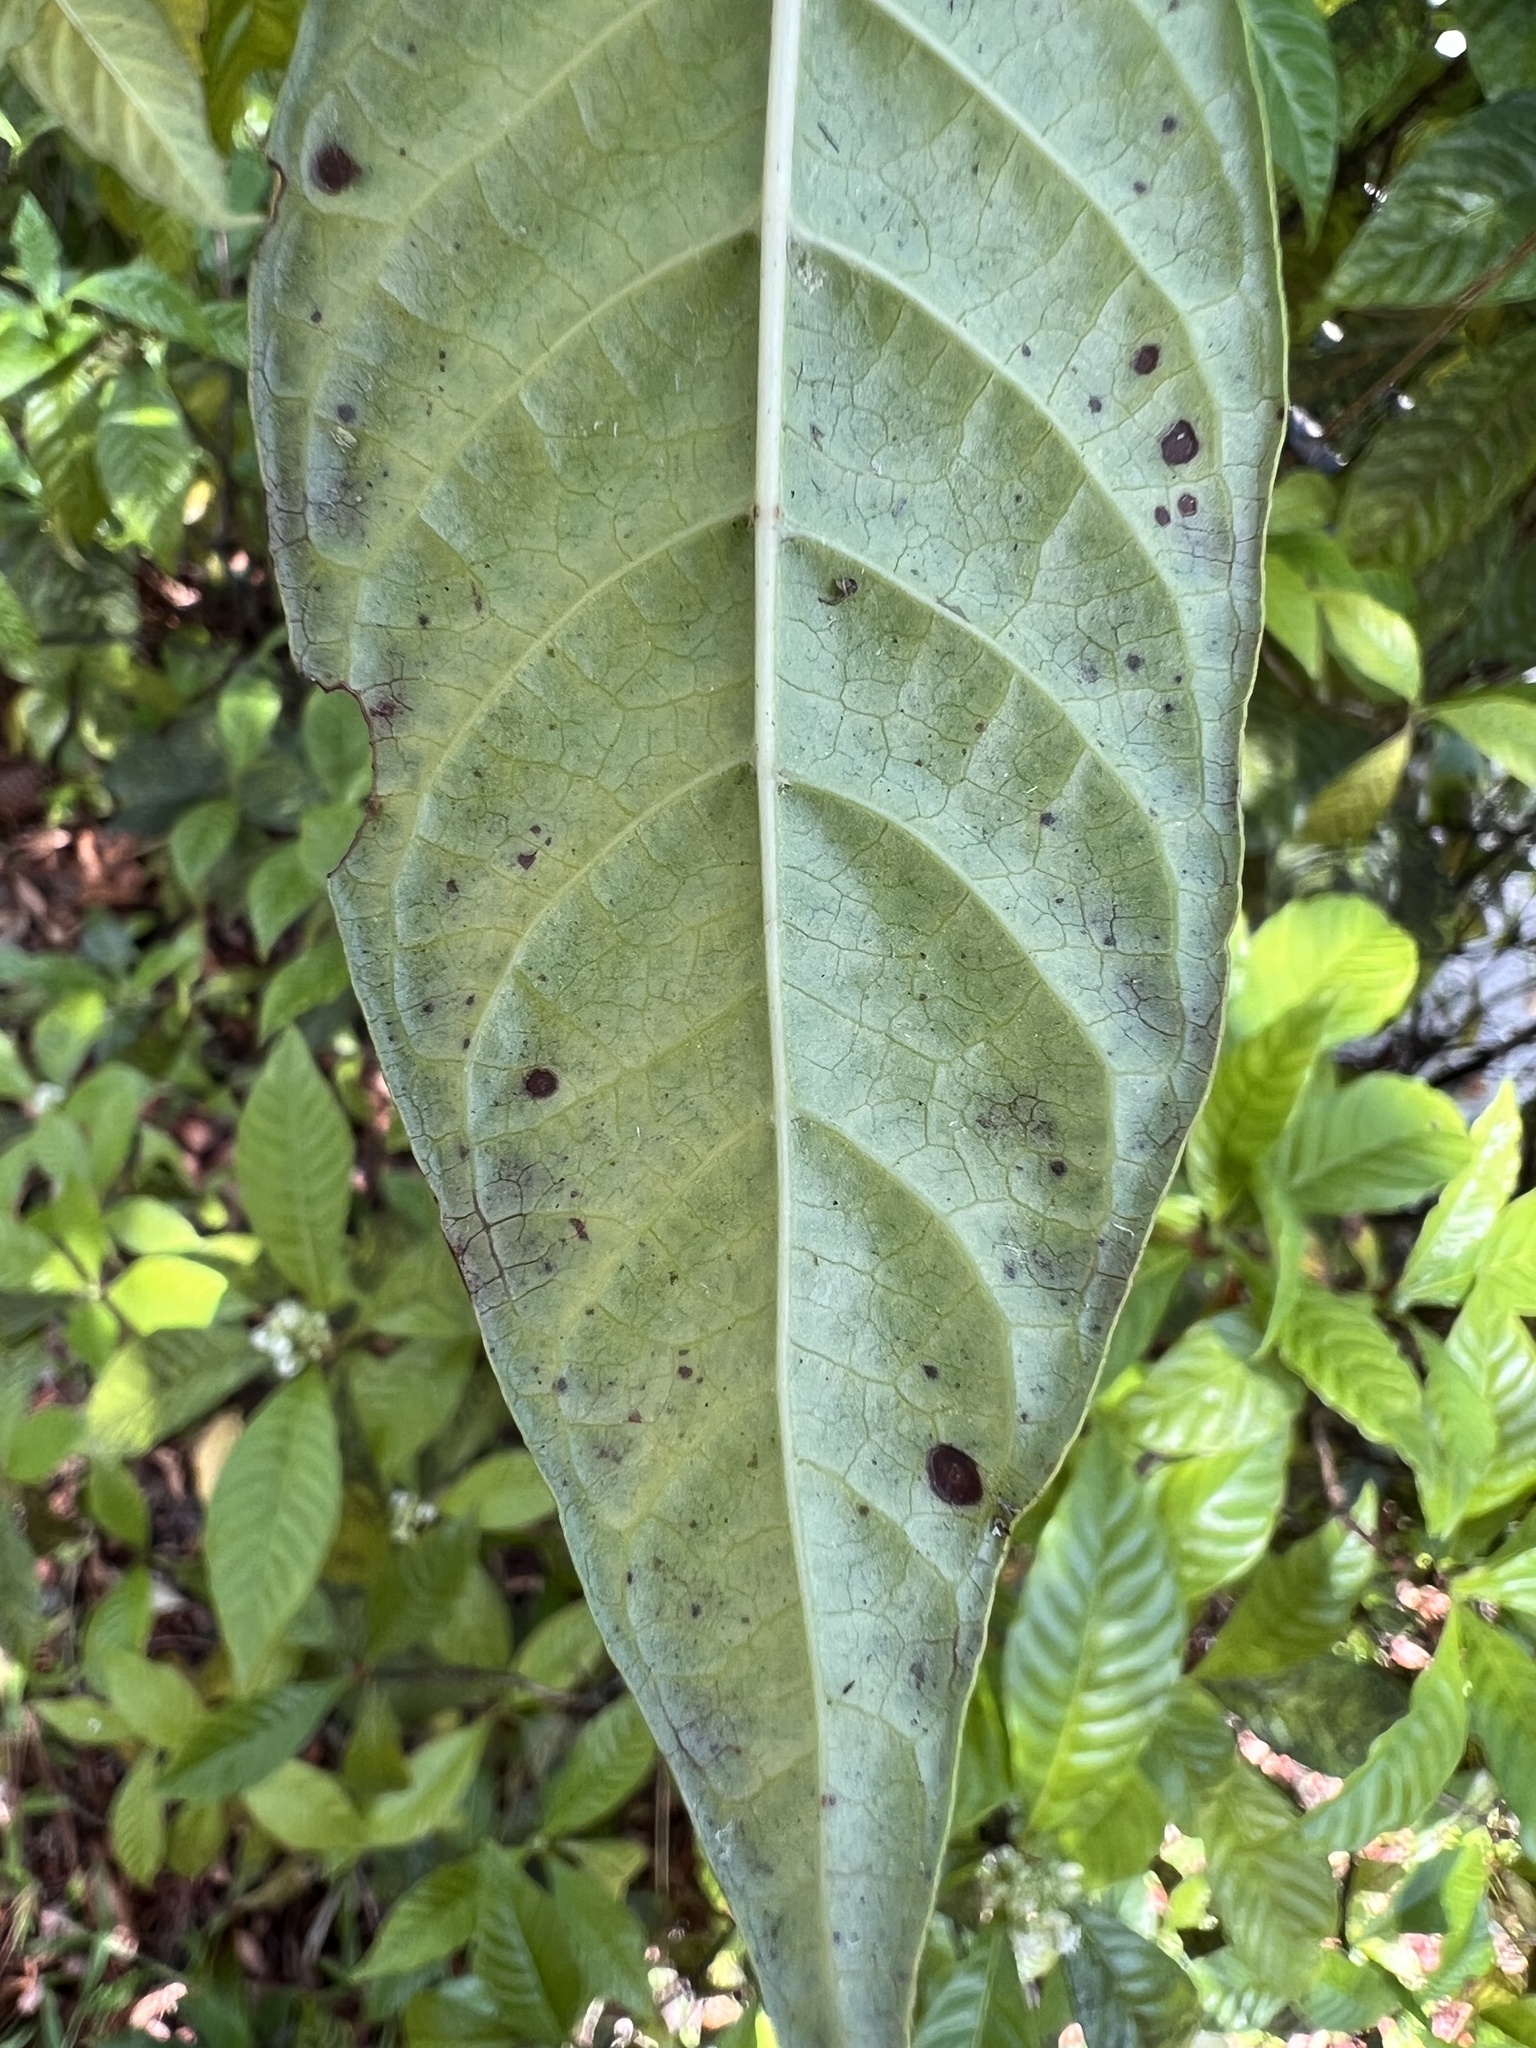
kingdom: Plantae
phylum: Tracheophyta
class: Magnoliopsida
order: Gentianales
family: Rubiaceae
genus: Psychotria
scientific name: Psychotria nervosa
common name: Bastard cankerberry
